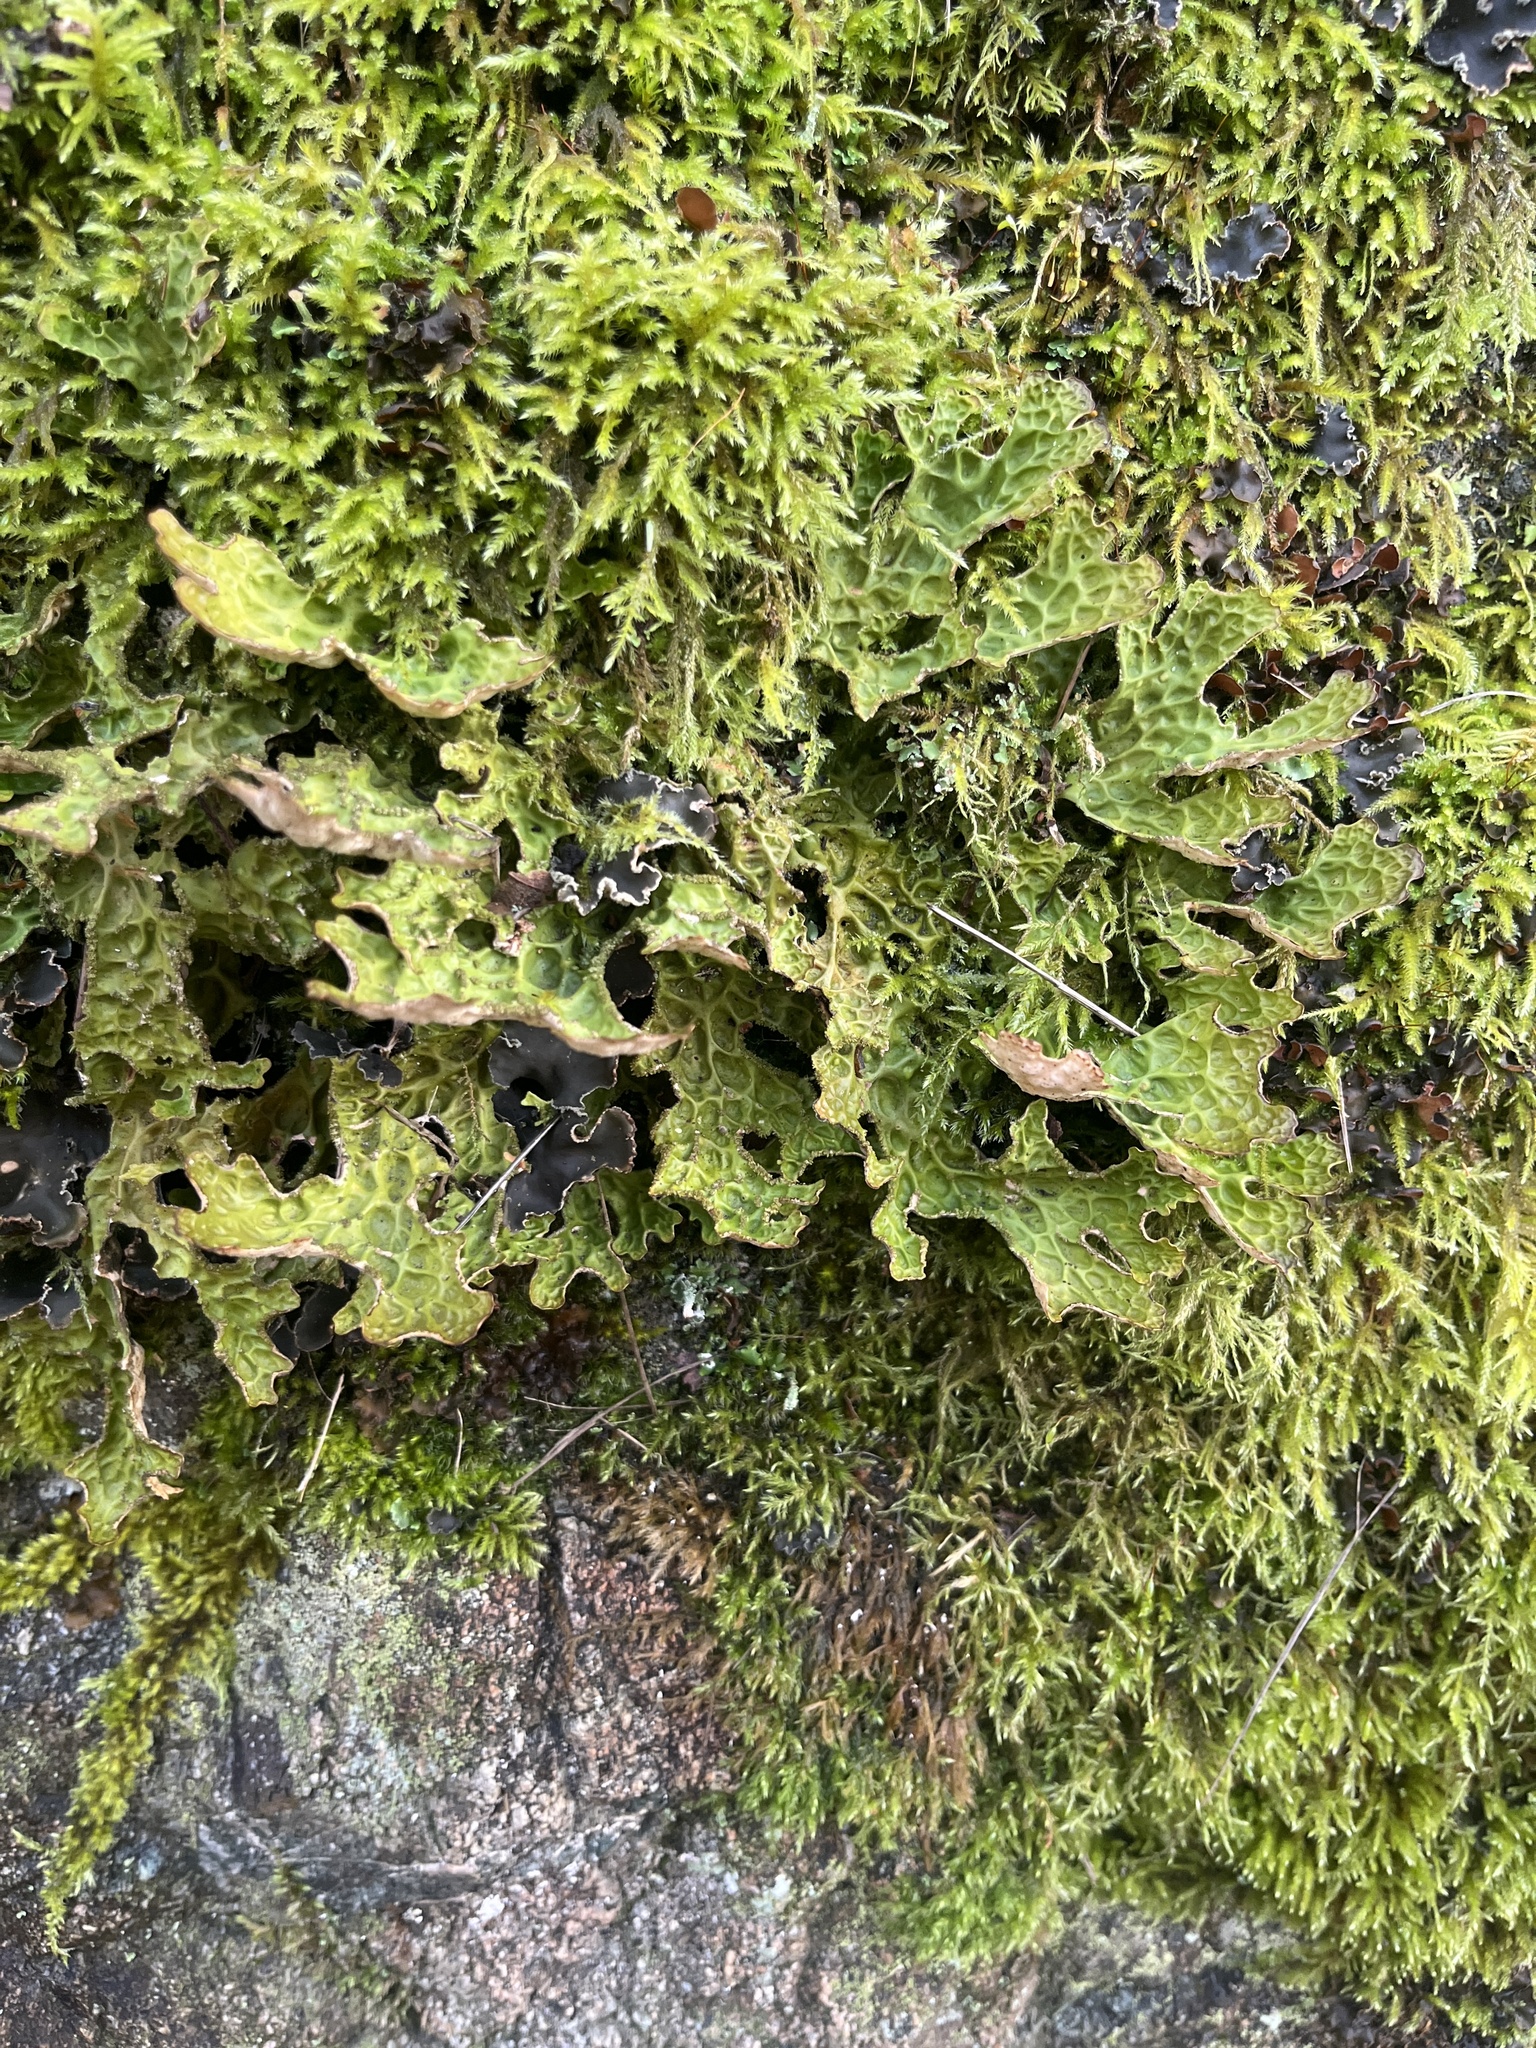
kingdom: Fungi
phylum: Ascomycota
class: Lecanoromycetes
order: Peltigerales
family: Lobariaceae
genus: Lobaria
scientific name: Lobaria pulmonaria
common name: Lungwort
